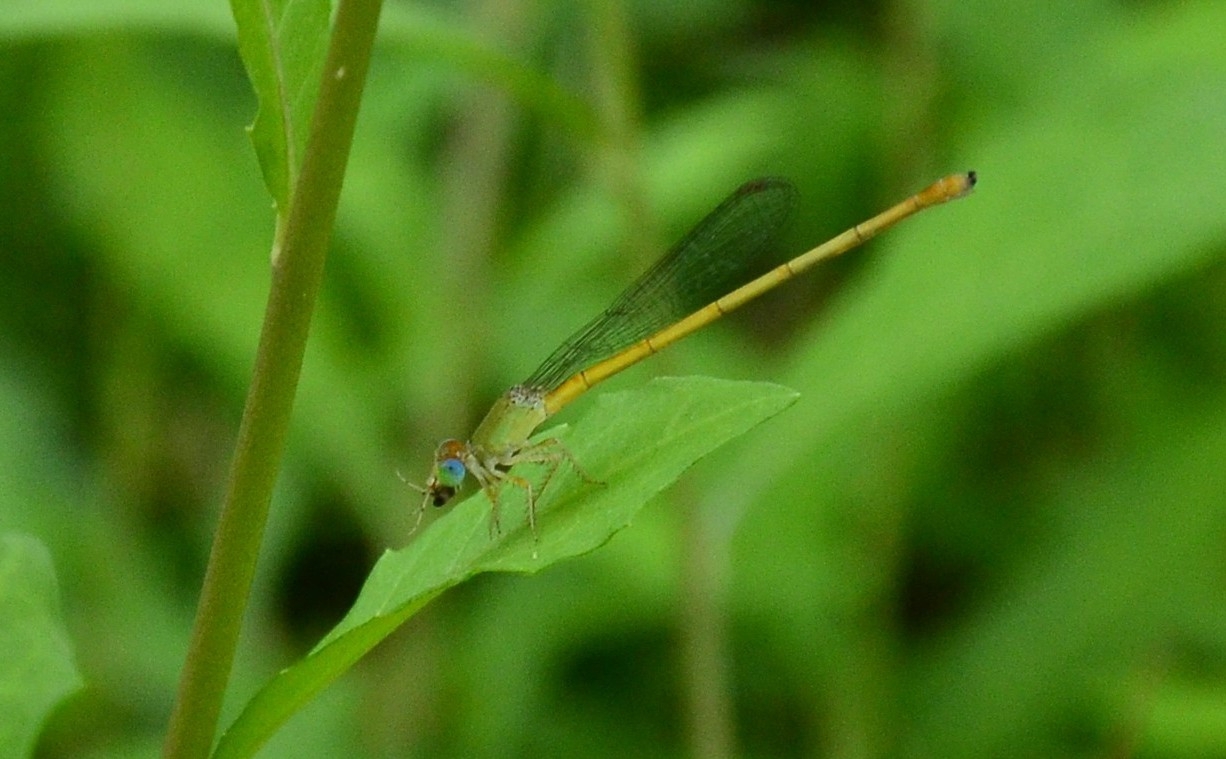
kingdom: Animalia
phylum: Arthropoda
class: Insecta
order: Odonata
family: Coenagrionidae
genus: Ceriagrion
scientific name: Ceriagrion coromandelianum
